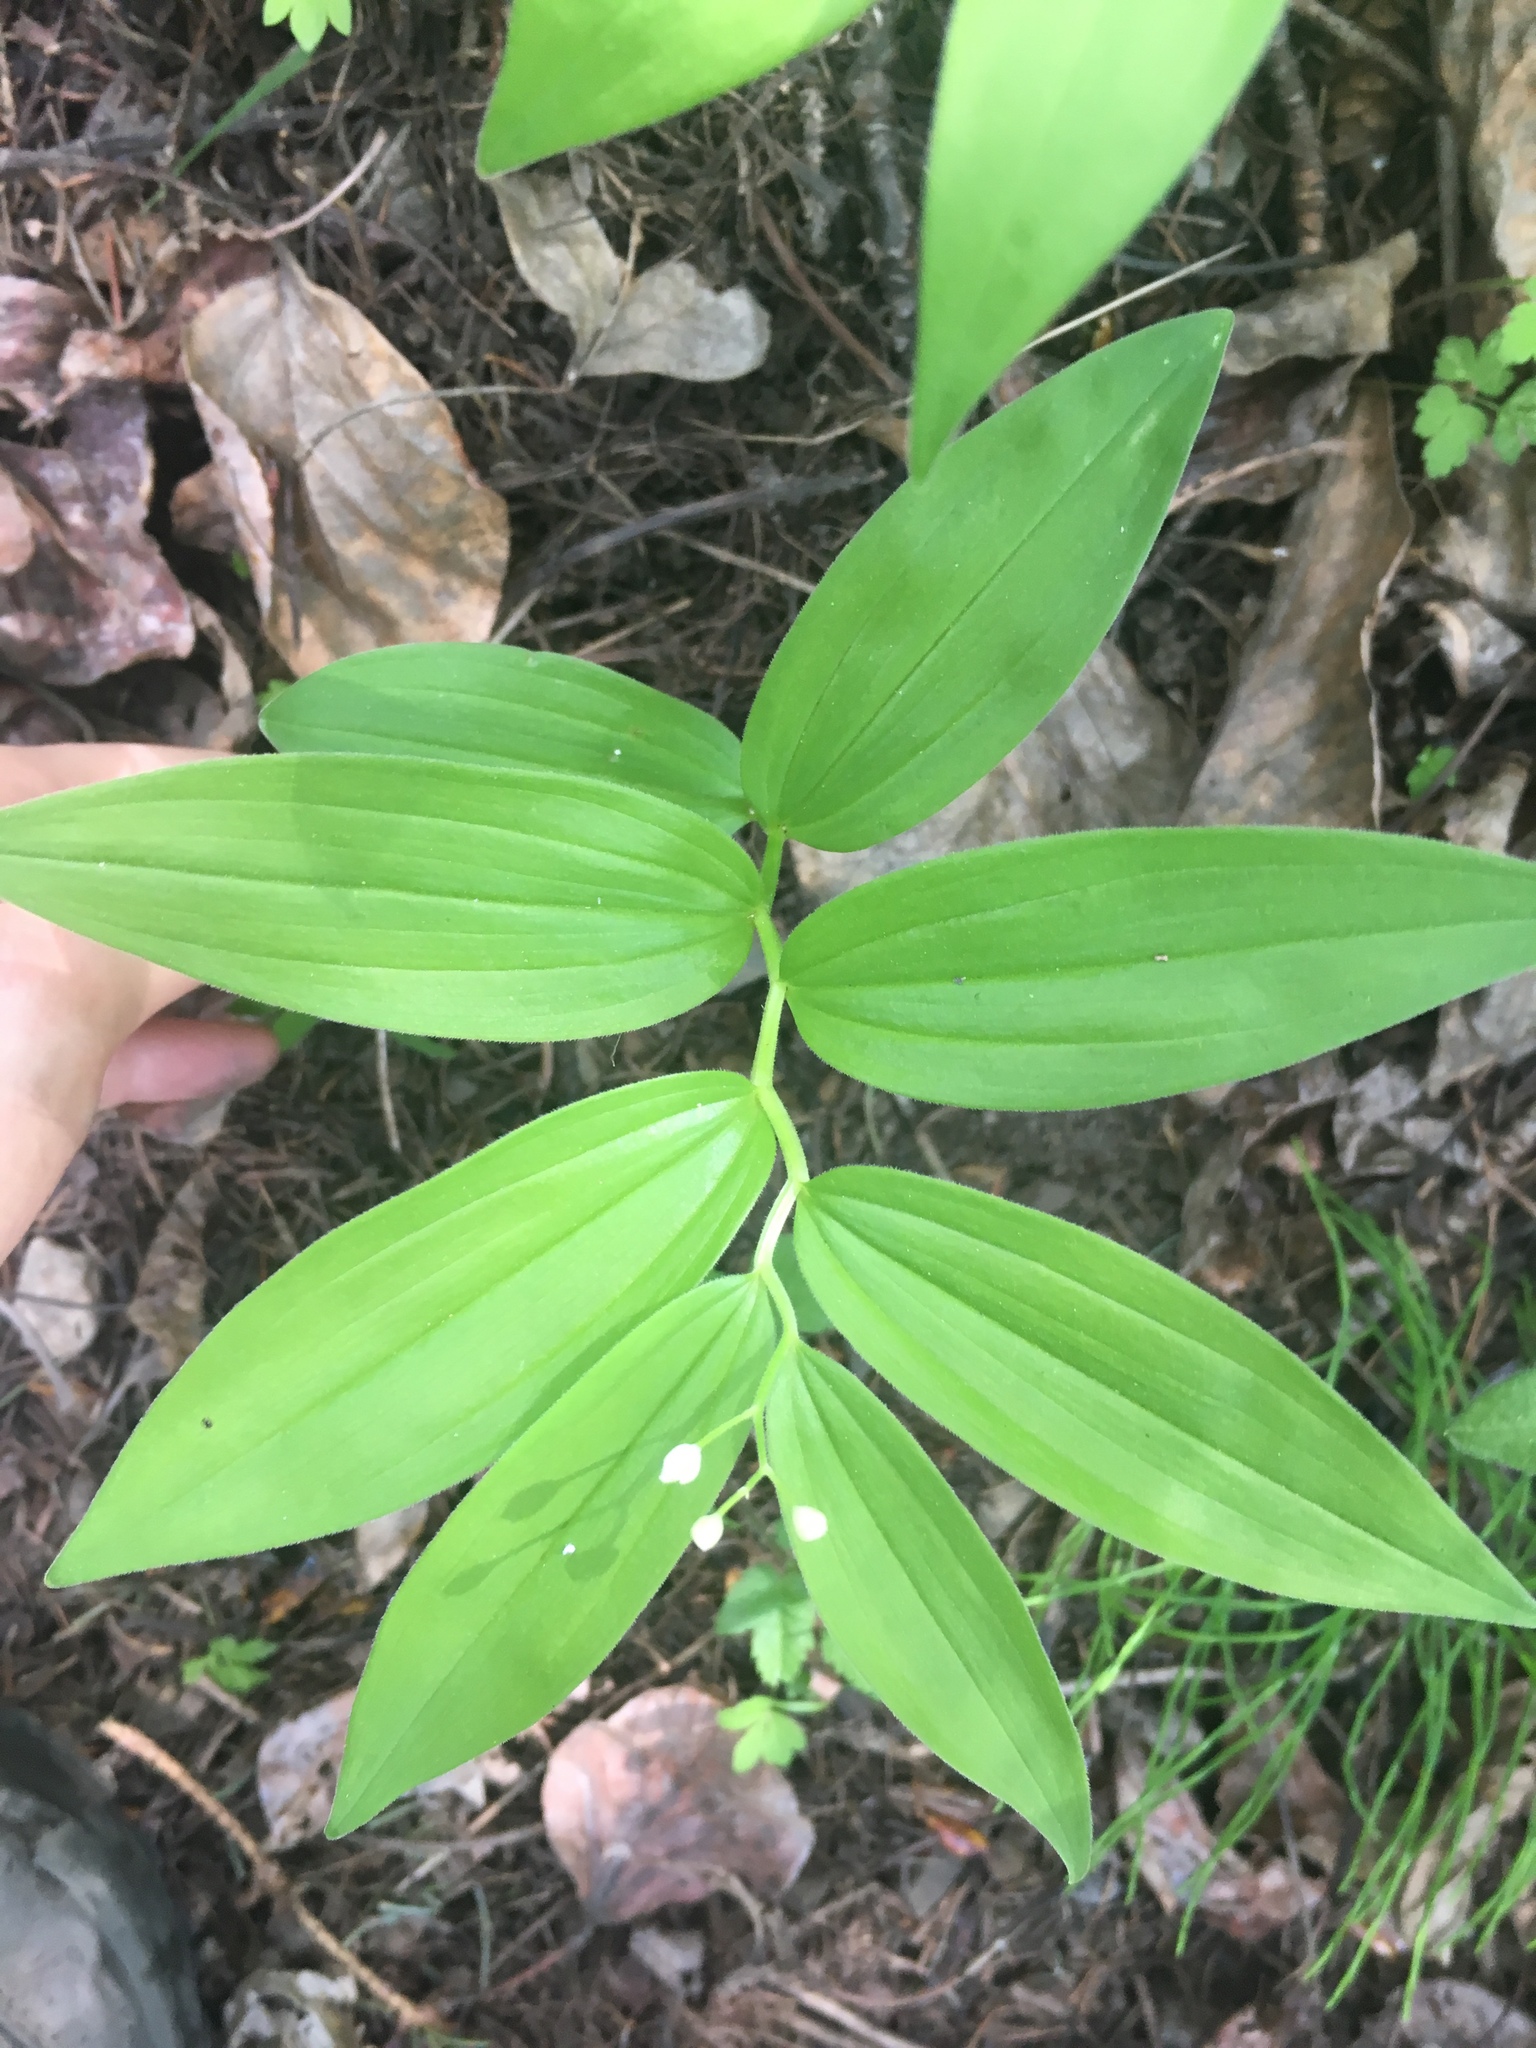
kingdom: Plantae
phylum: Tracheophyta
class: Liliopsida
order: Asparagales
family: Asparagaceae
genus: Maianthemum
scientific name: Maianthemum stellatum
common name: Little false solomon's seal
